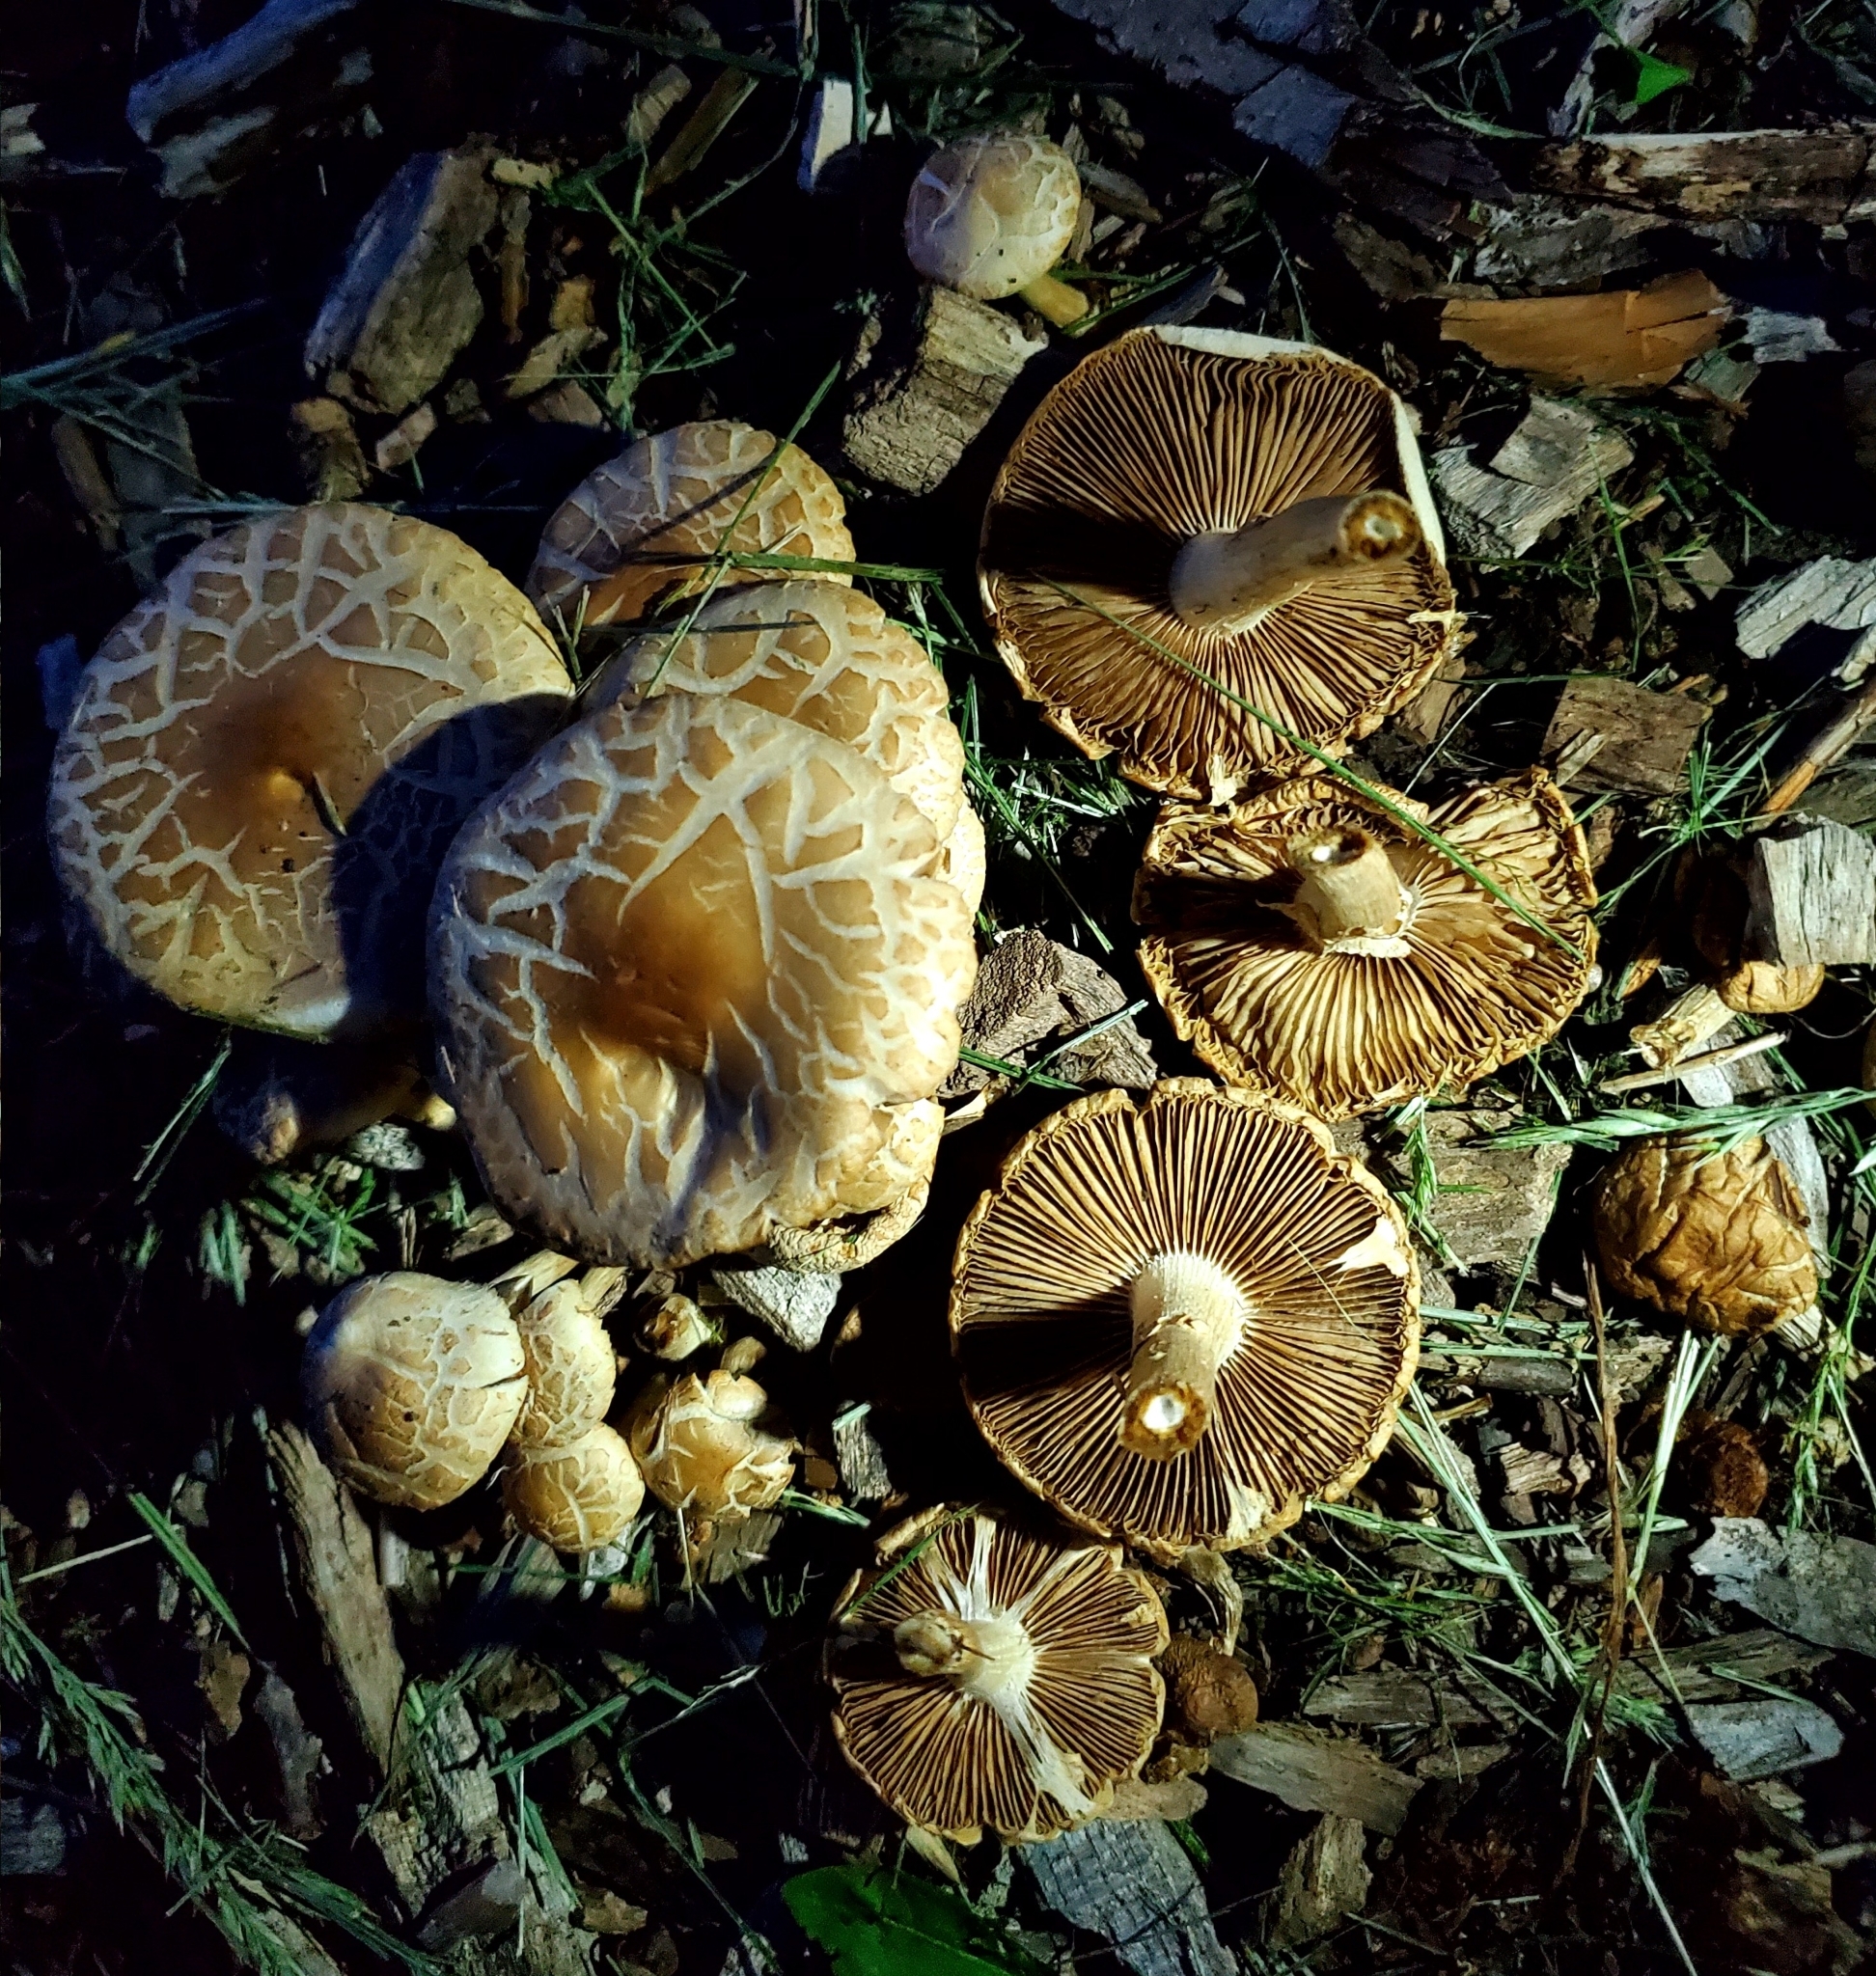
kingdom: Fungi
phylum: Basidiomycota
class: Agaricomycetes
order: Agaricales
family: Strophariaceae
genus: Agrocybe
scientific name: Agrocybe praecox
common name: Spring fieldcap
